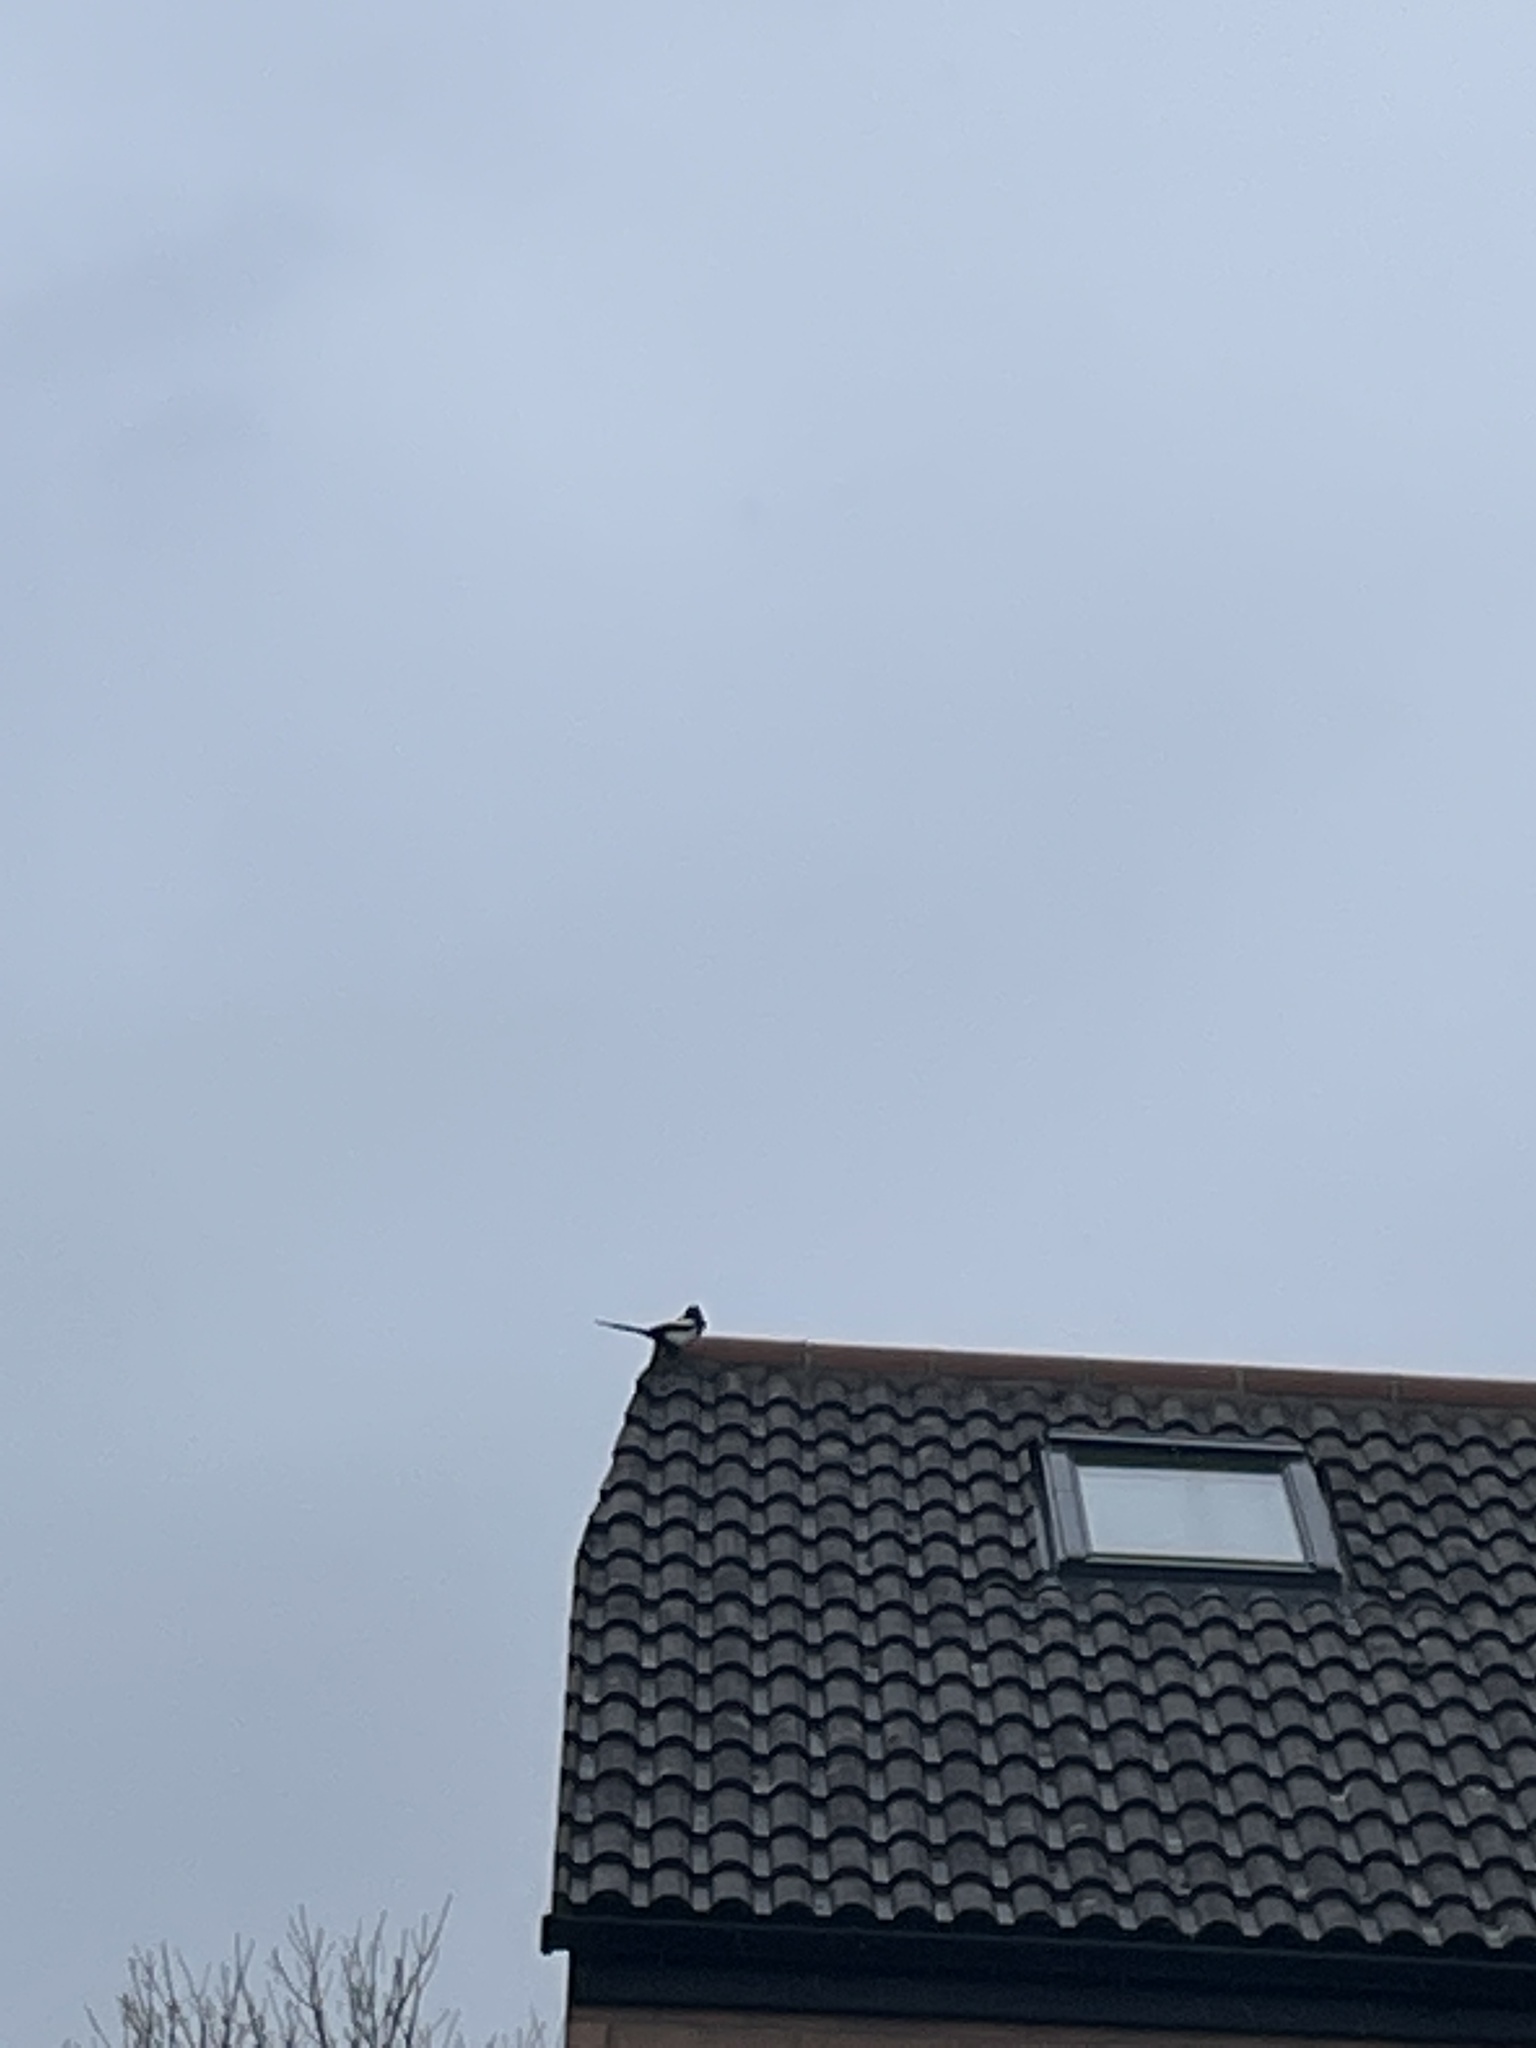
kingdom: Animalia
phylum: Chordata
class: Aves
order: Passeriformes
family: Corvidae
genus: Pica
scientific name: Pica pica
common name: Eurasian magpie
